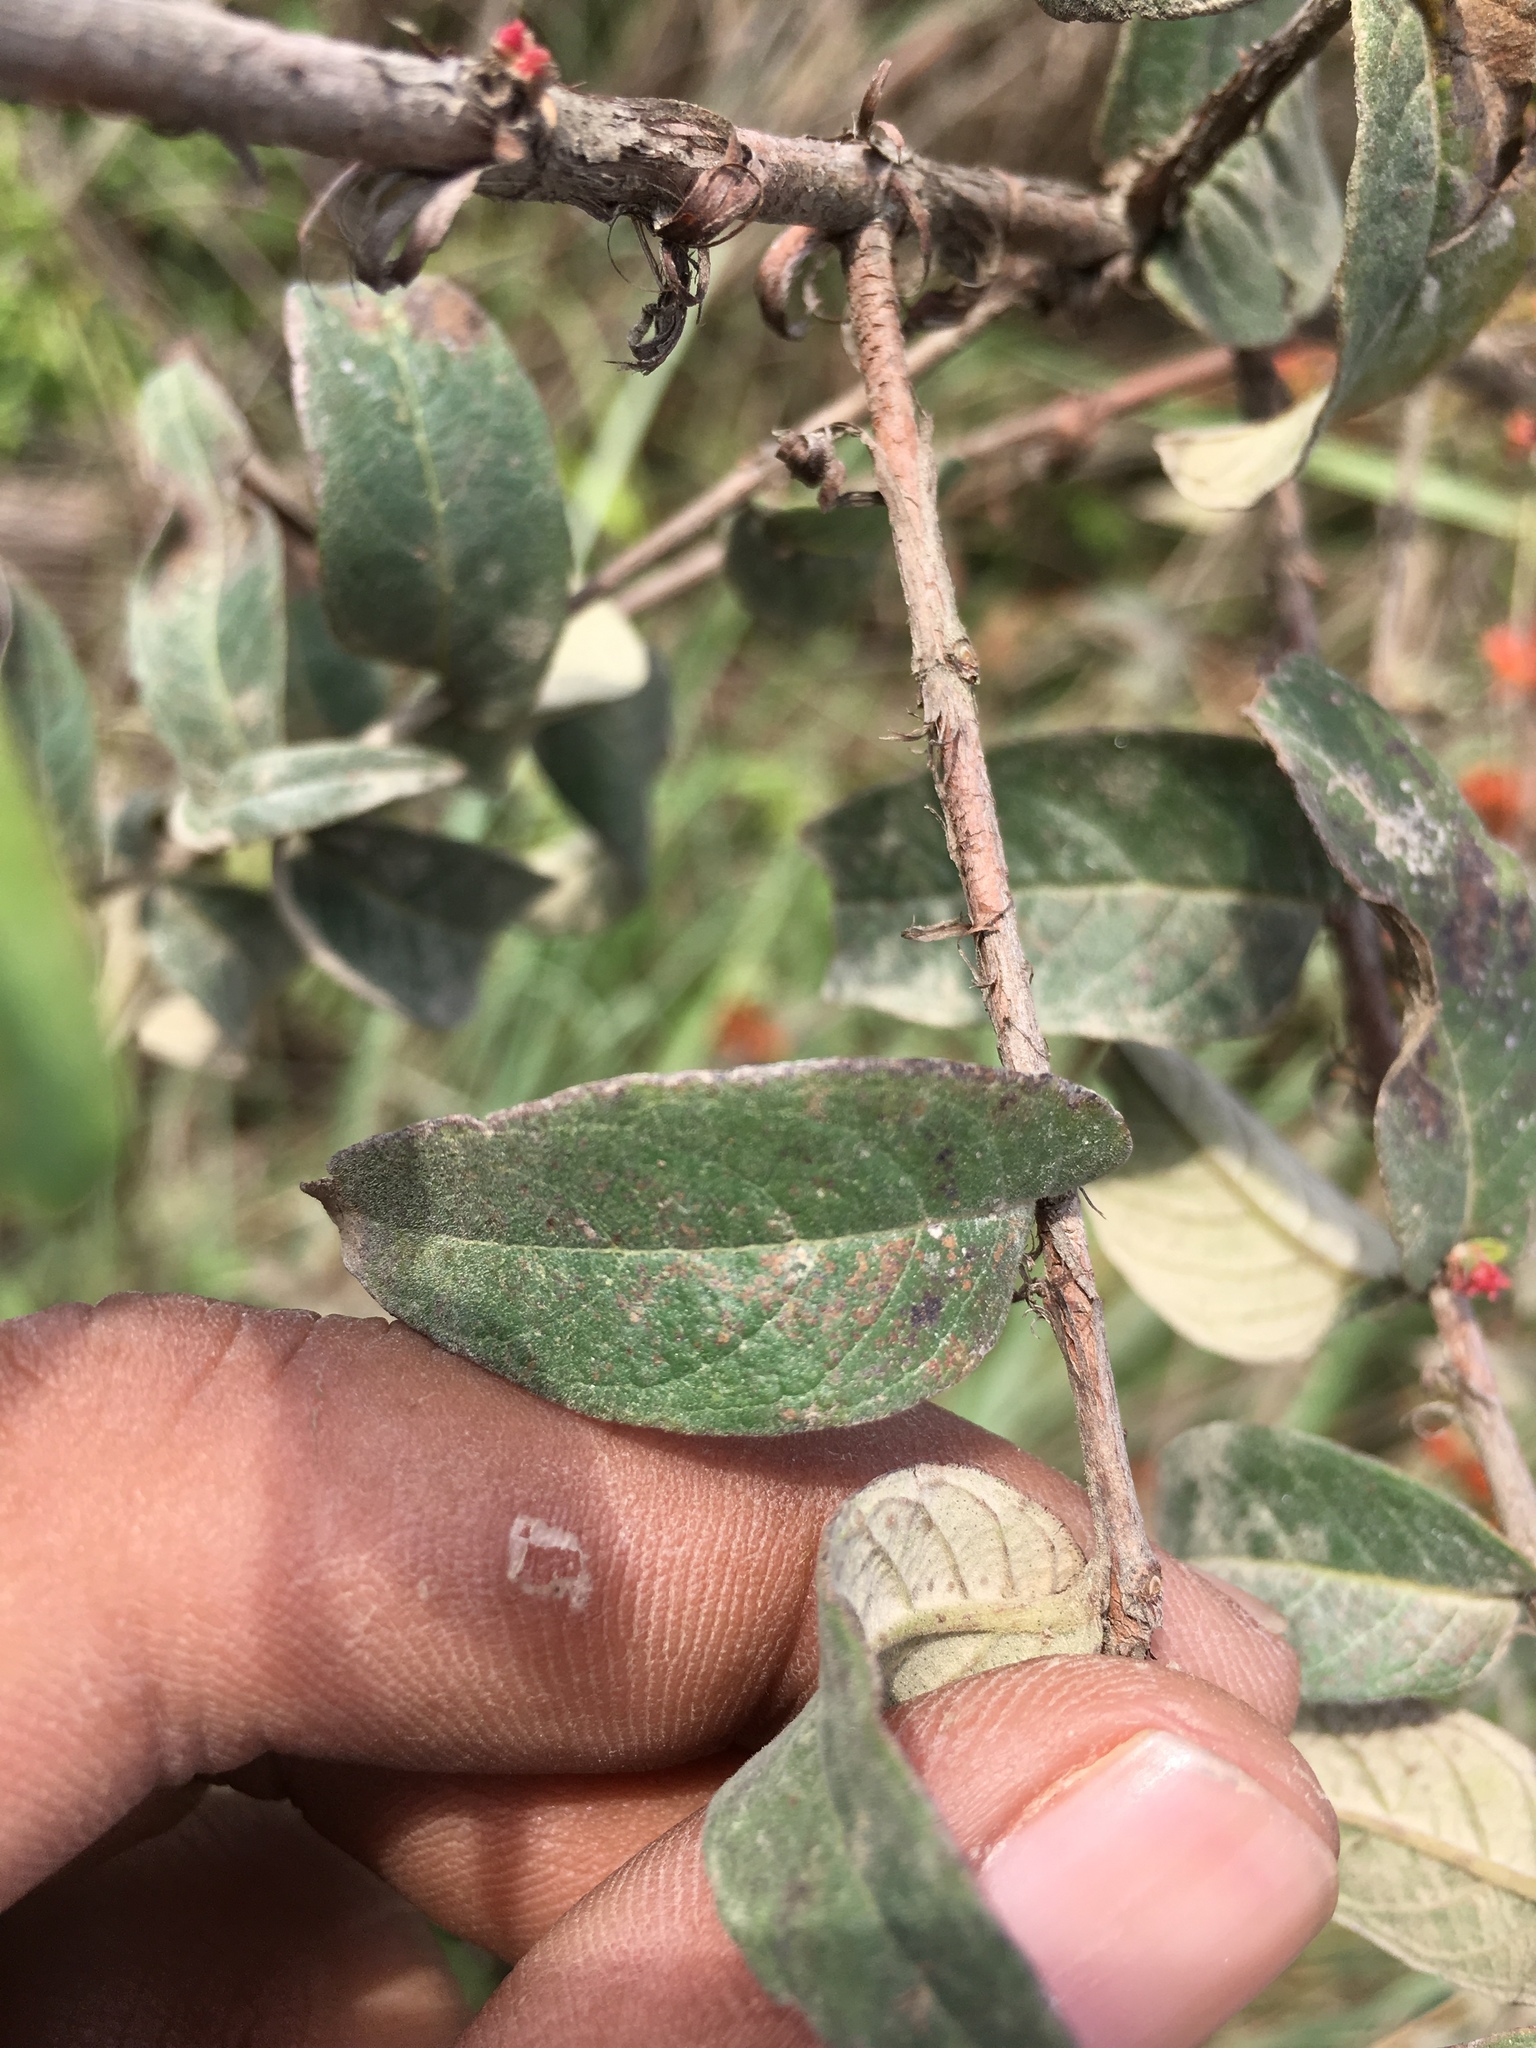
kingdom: Plantae
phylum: Tracheophyta
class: Magnoliopsida
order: Myrtales
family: Lythraceae
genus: Woodfordia
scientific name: Woodfordia fruticosa
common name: Shiranji-tea
